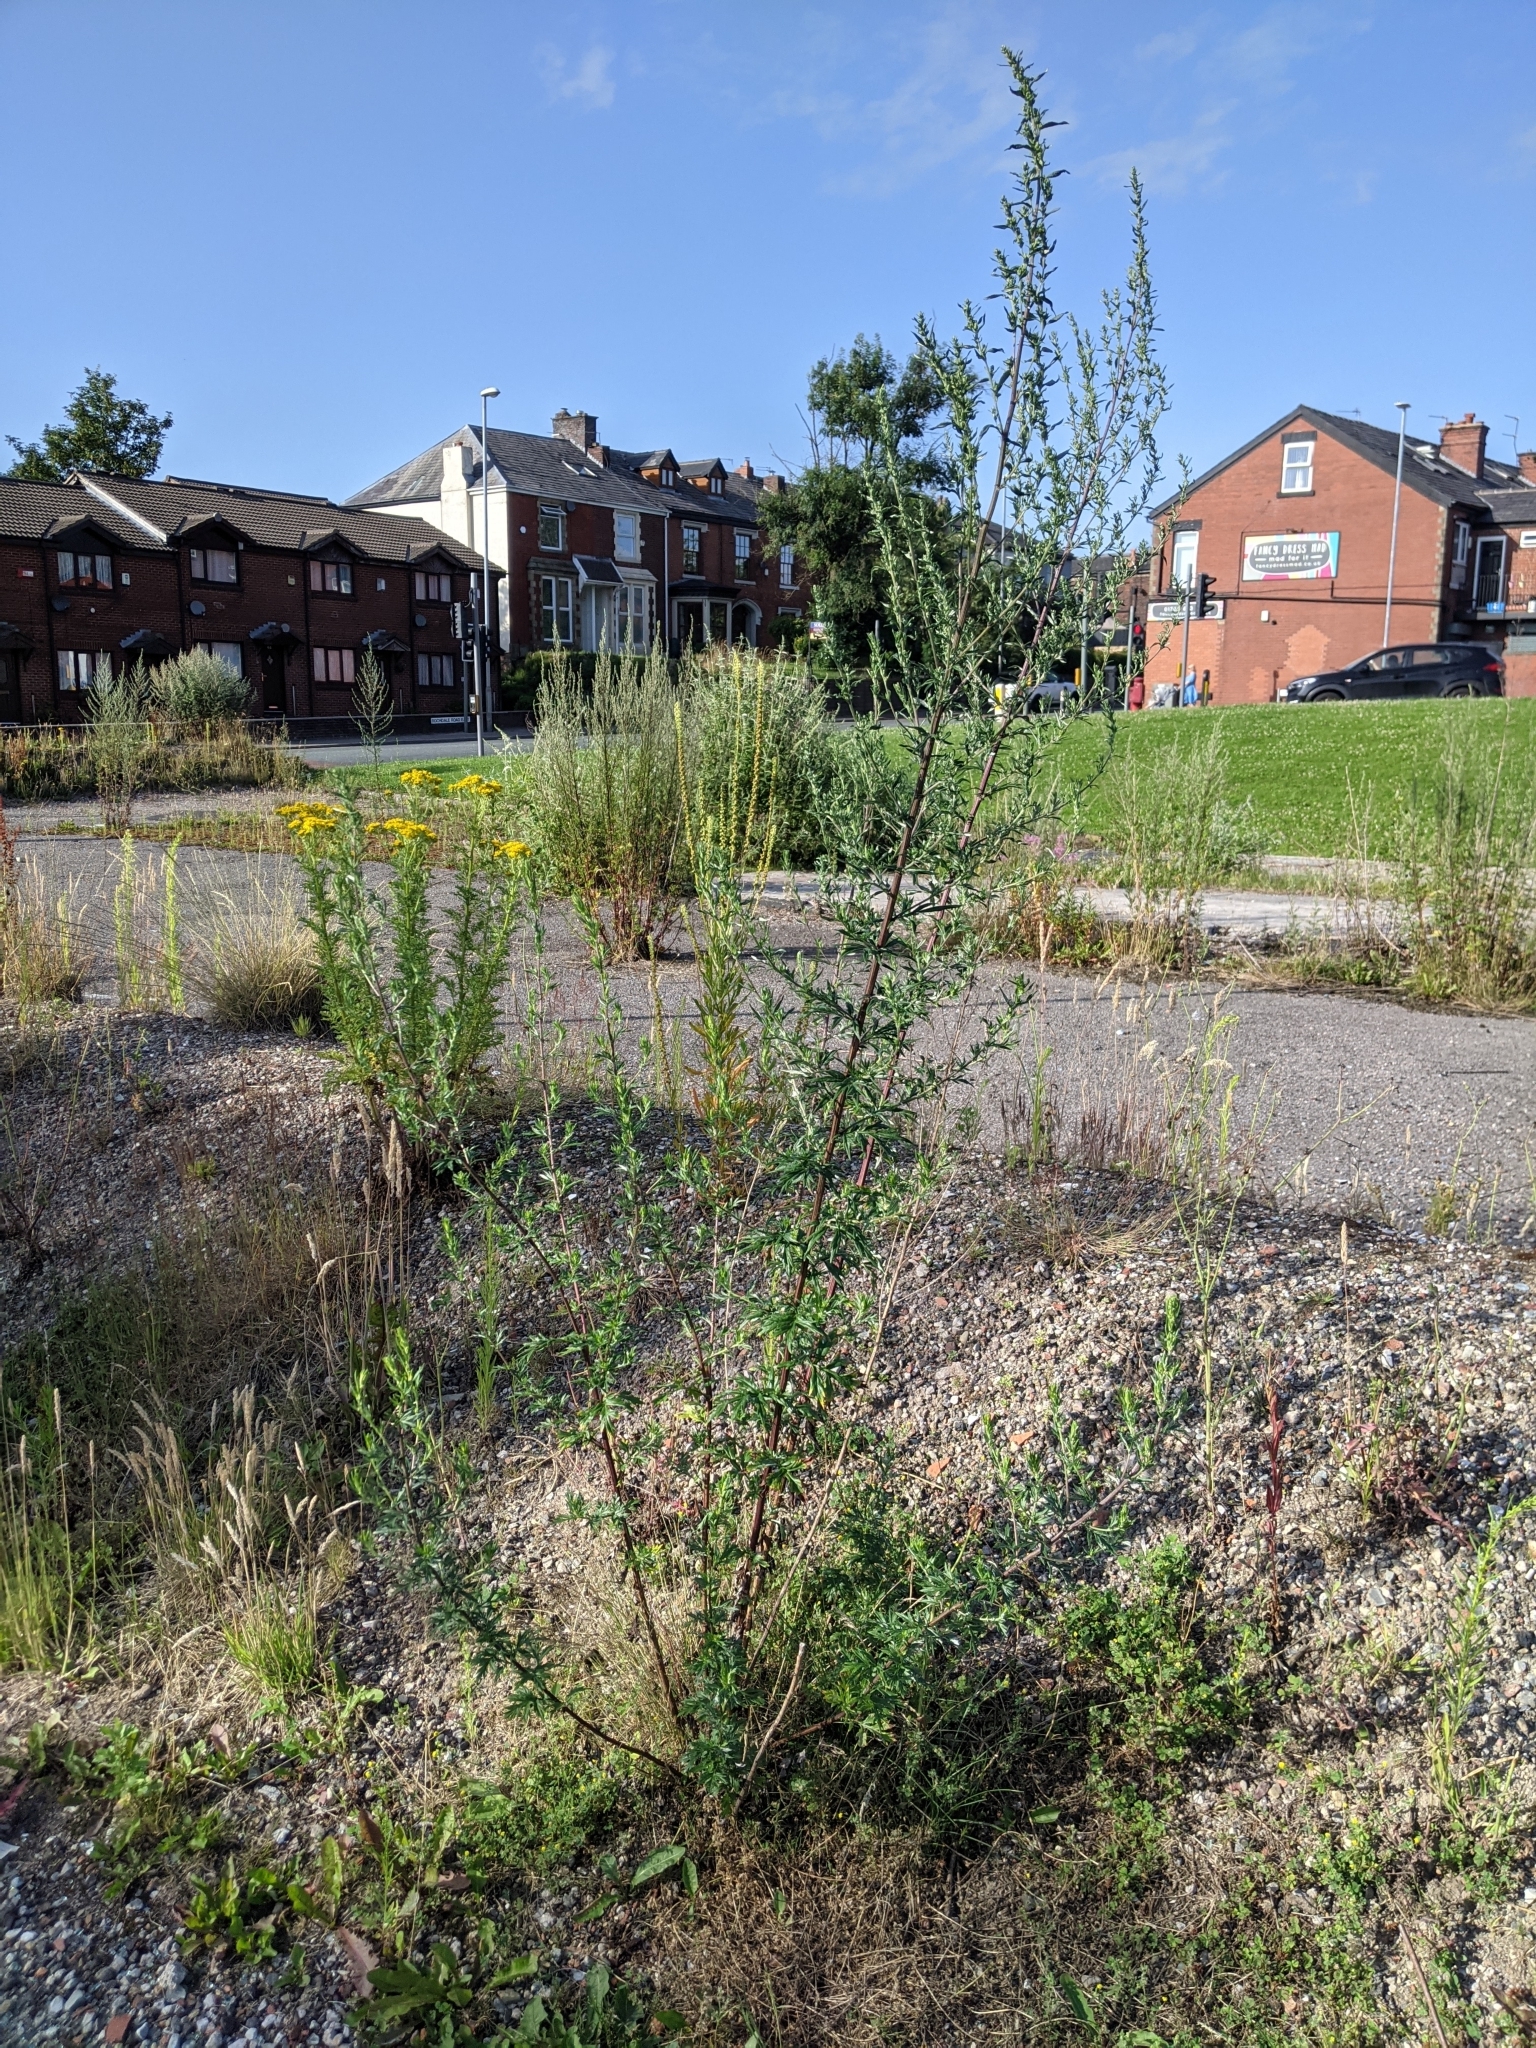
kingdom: Plantae
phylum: Tracheophyta
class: Magnoliopsida
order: Asterales
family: Asteraceae
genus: Artemisia
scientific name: Artemisia vulgaris
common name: Mugwort
